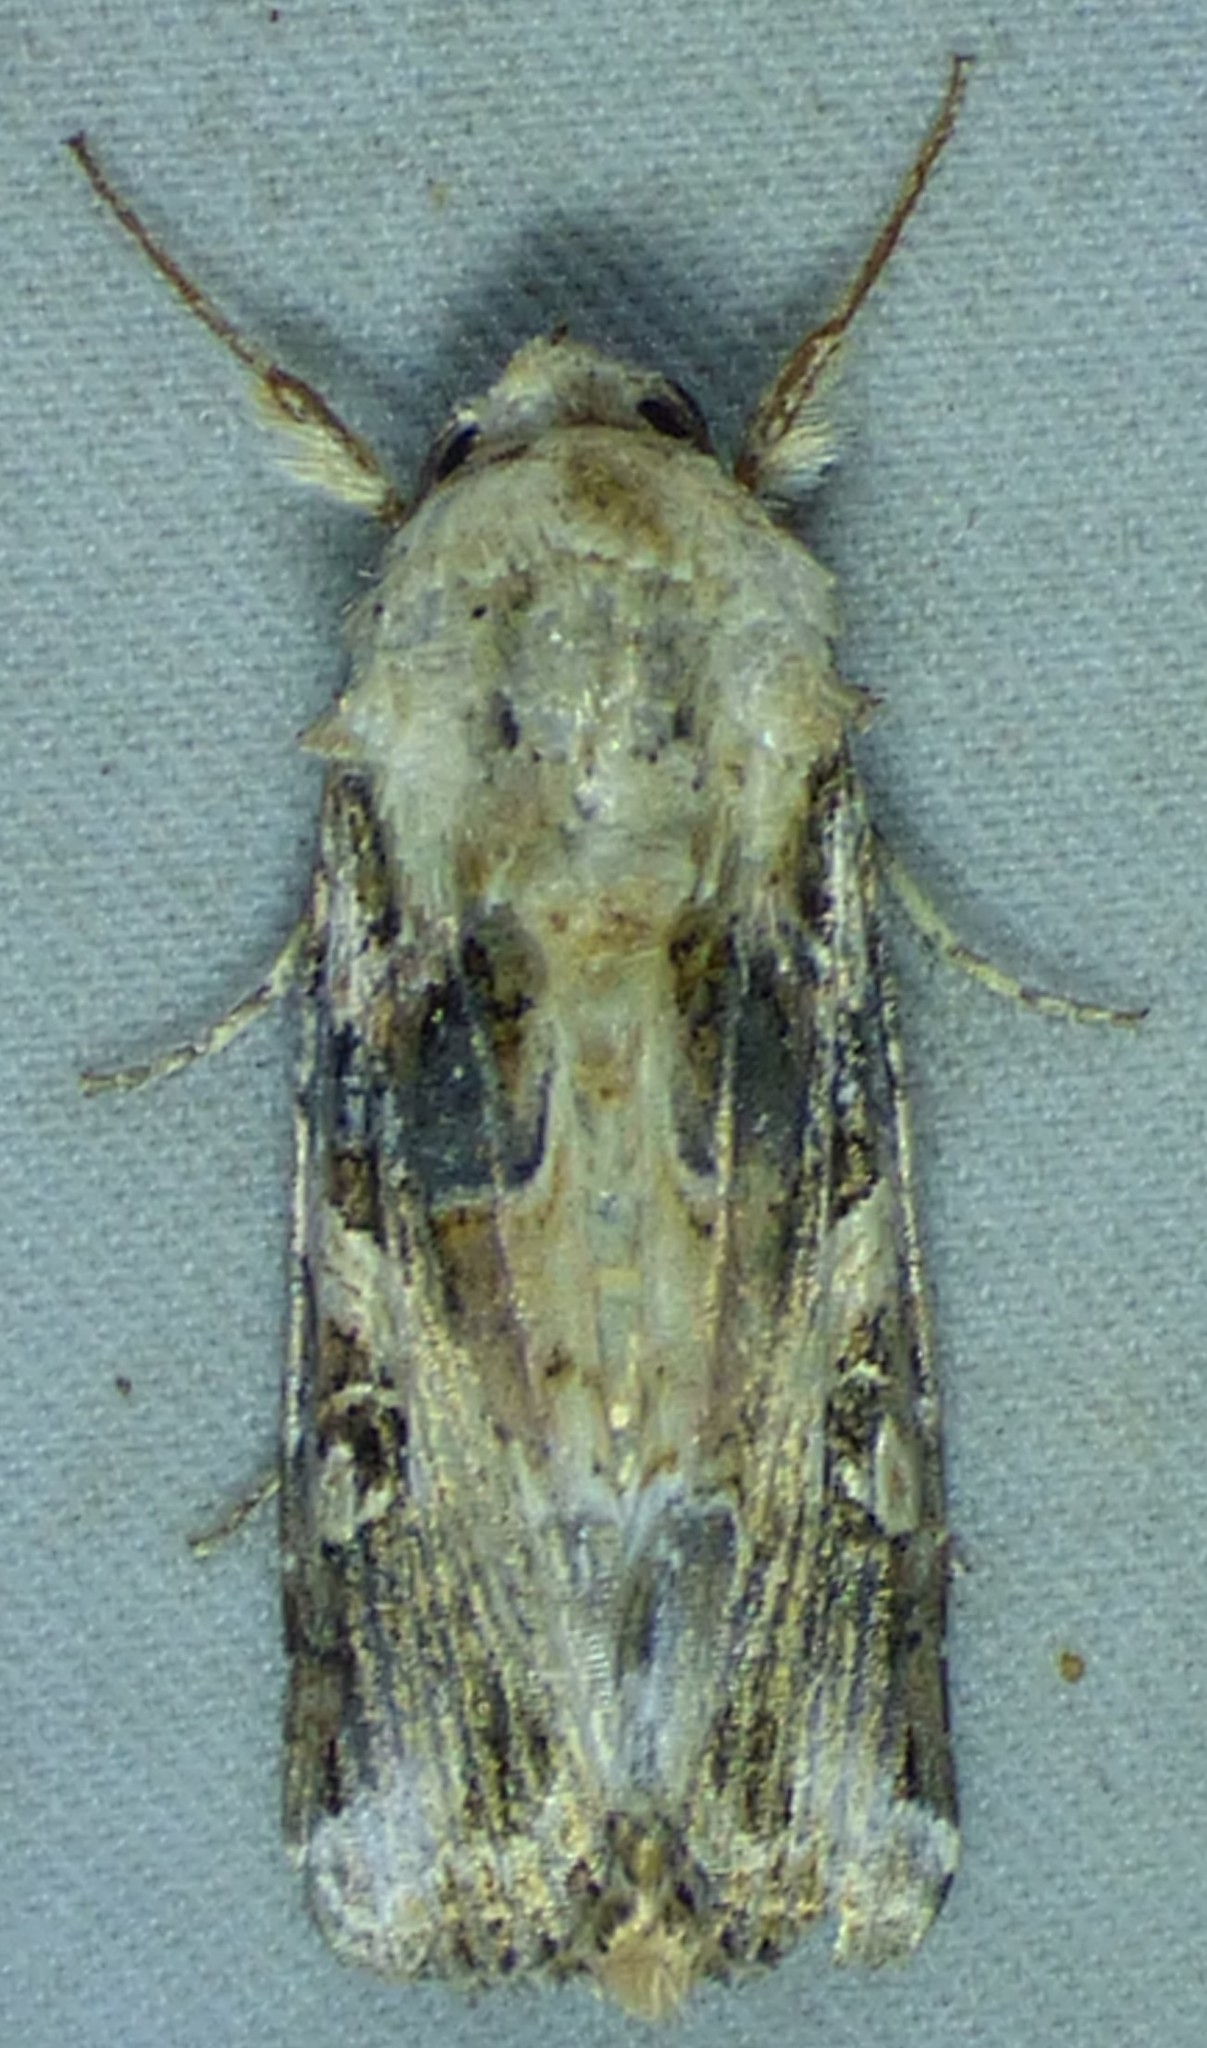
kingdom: Animalia
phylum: Arthropoda
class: Insecta
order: Lepidoptera
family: Noctuidae
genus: Spodoptera
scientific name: Spodoptera ornithogalli
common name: Yellow-striped armyworm
